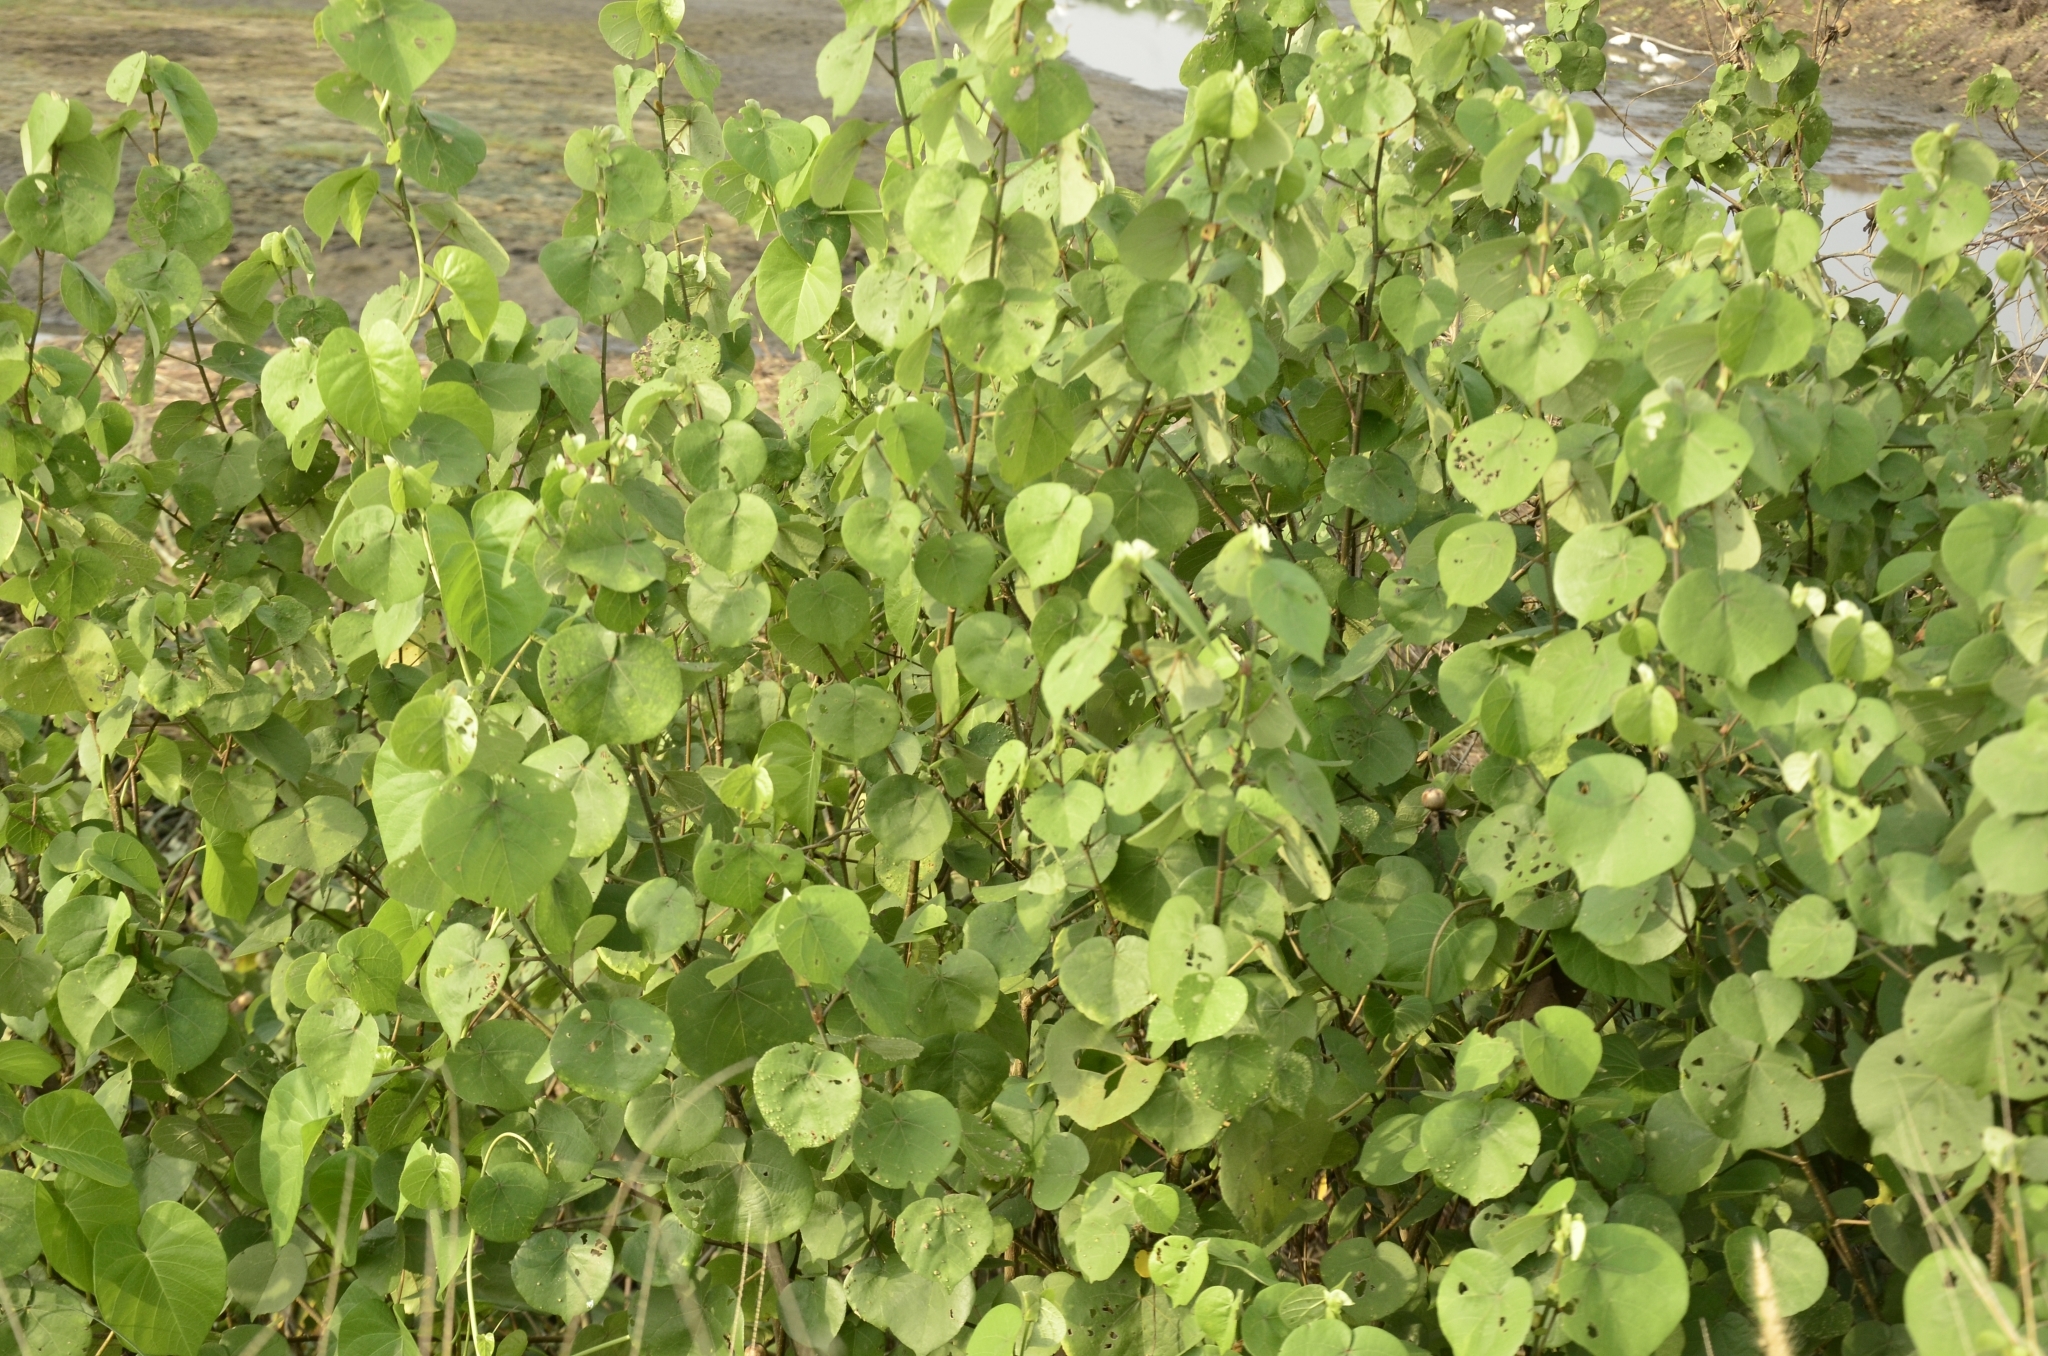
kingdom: Plantae
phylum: Tracheophyta
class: Magnoliopsida
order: Malvales
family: Malvaceae
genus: Talipariti
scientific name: Talipariti tiliaceum
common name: Sea hibiscus
